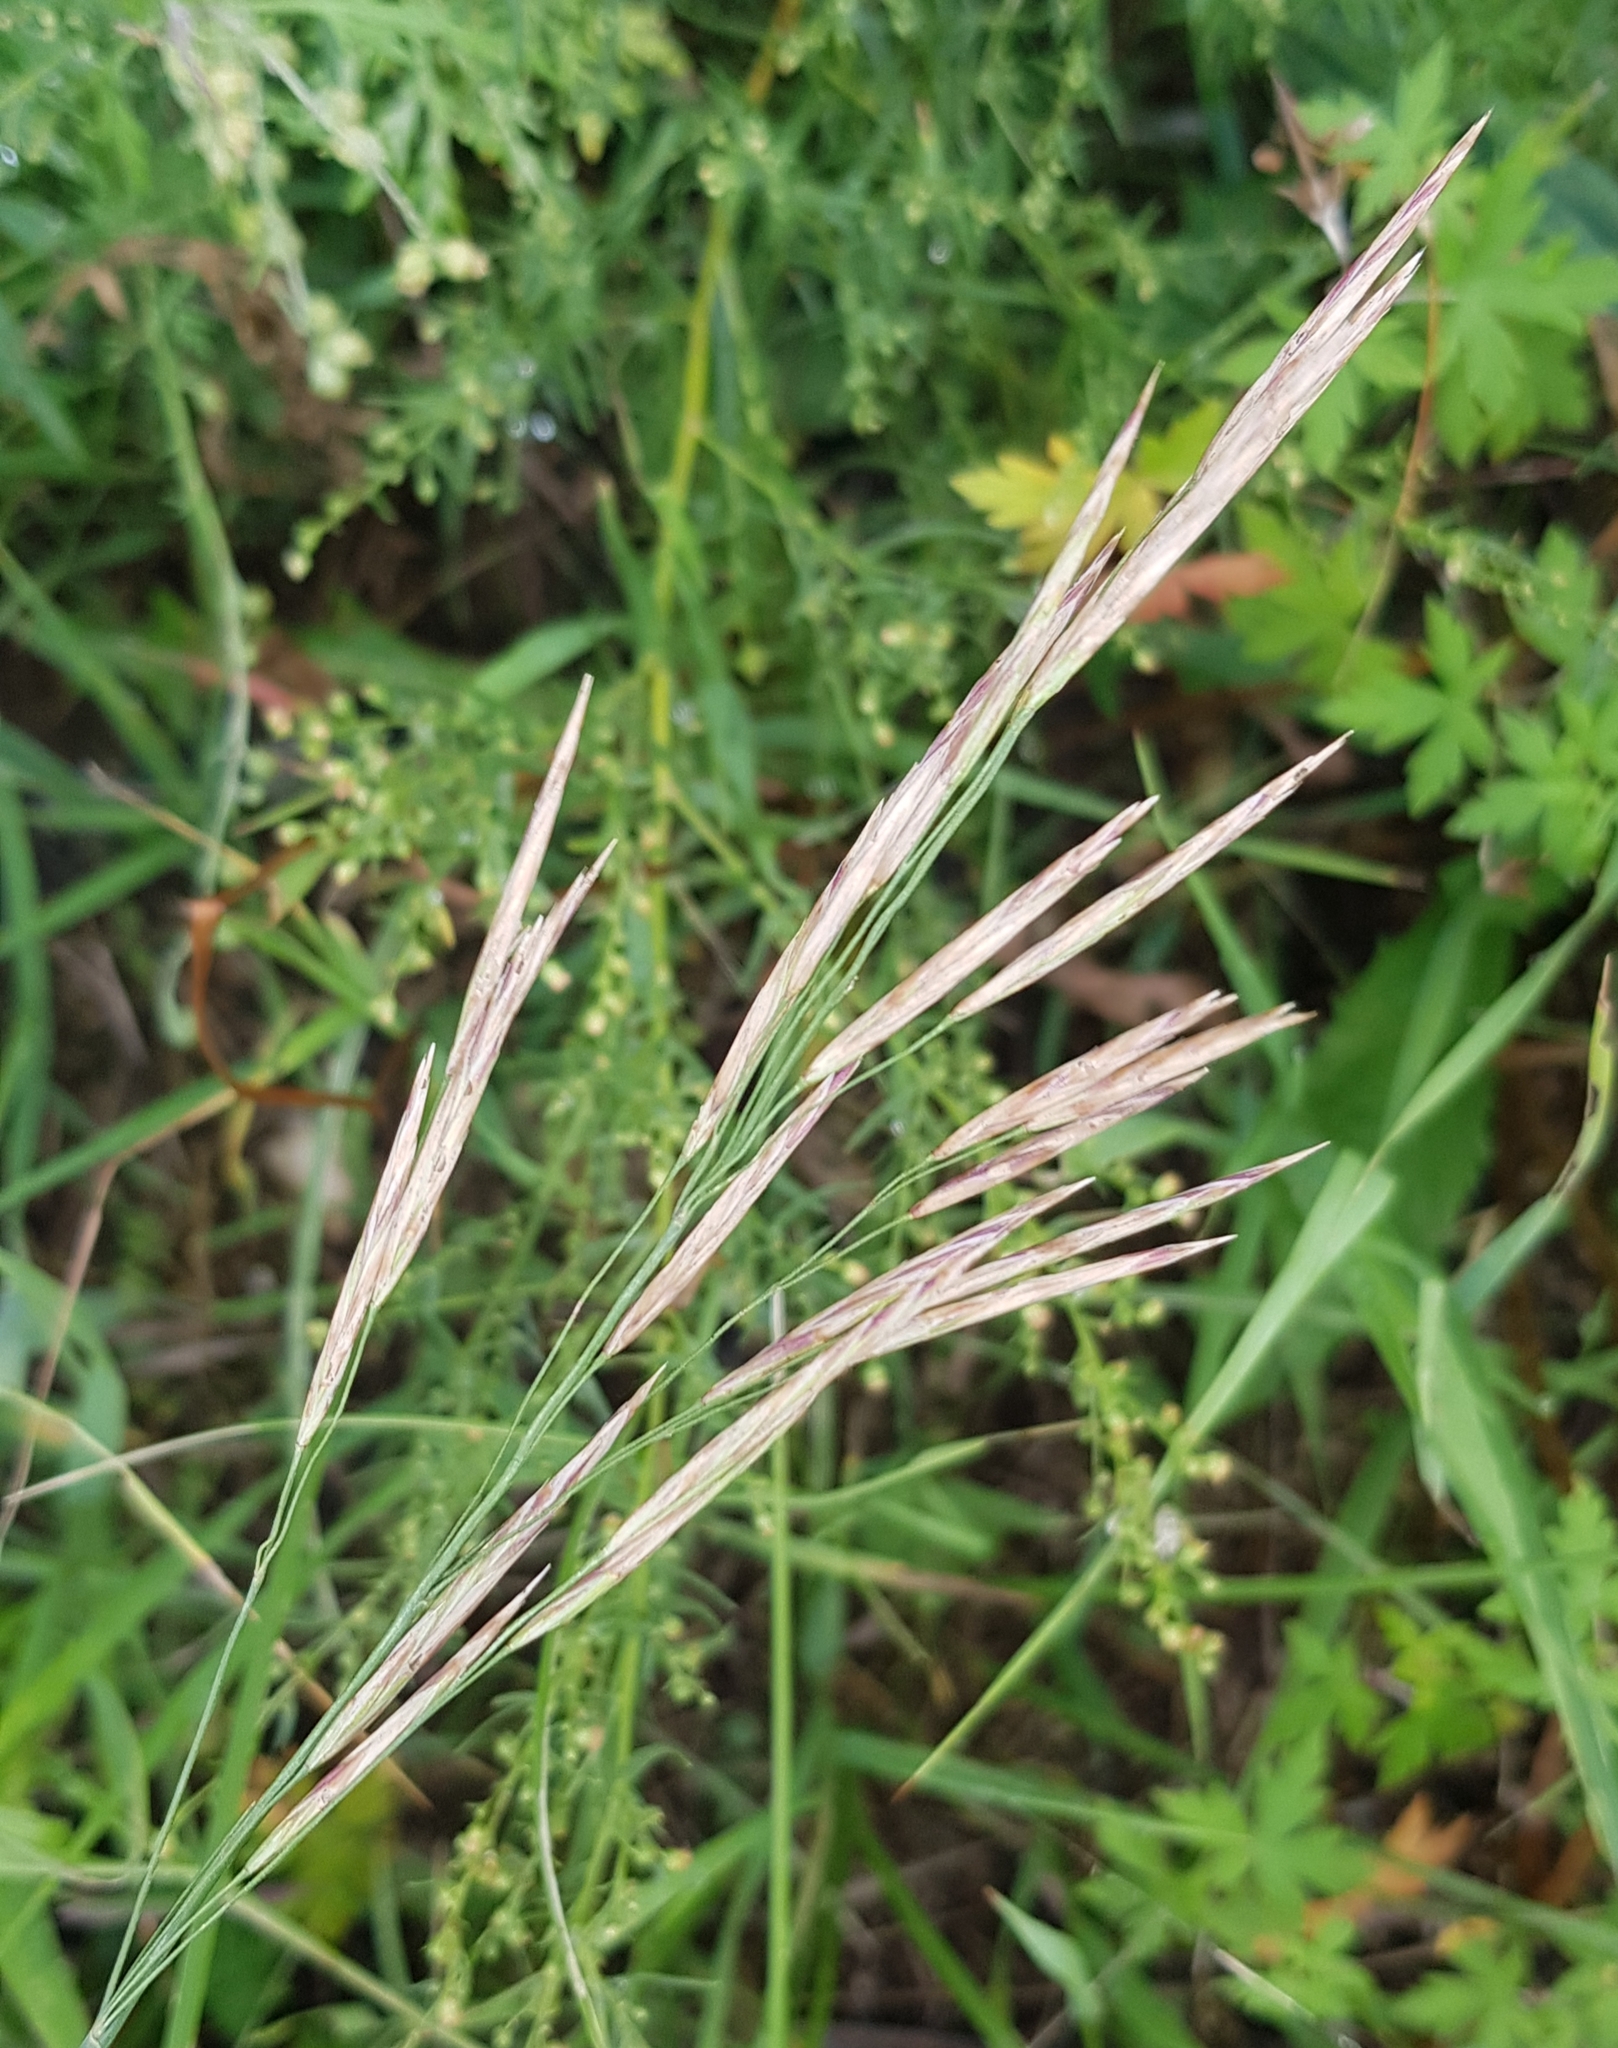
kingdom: Plantae
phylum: Tracheophyta
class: Liliopsida
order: Poales
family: Poaceae
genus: Bromus
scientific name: Bromus inermis
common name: Smooth brome
